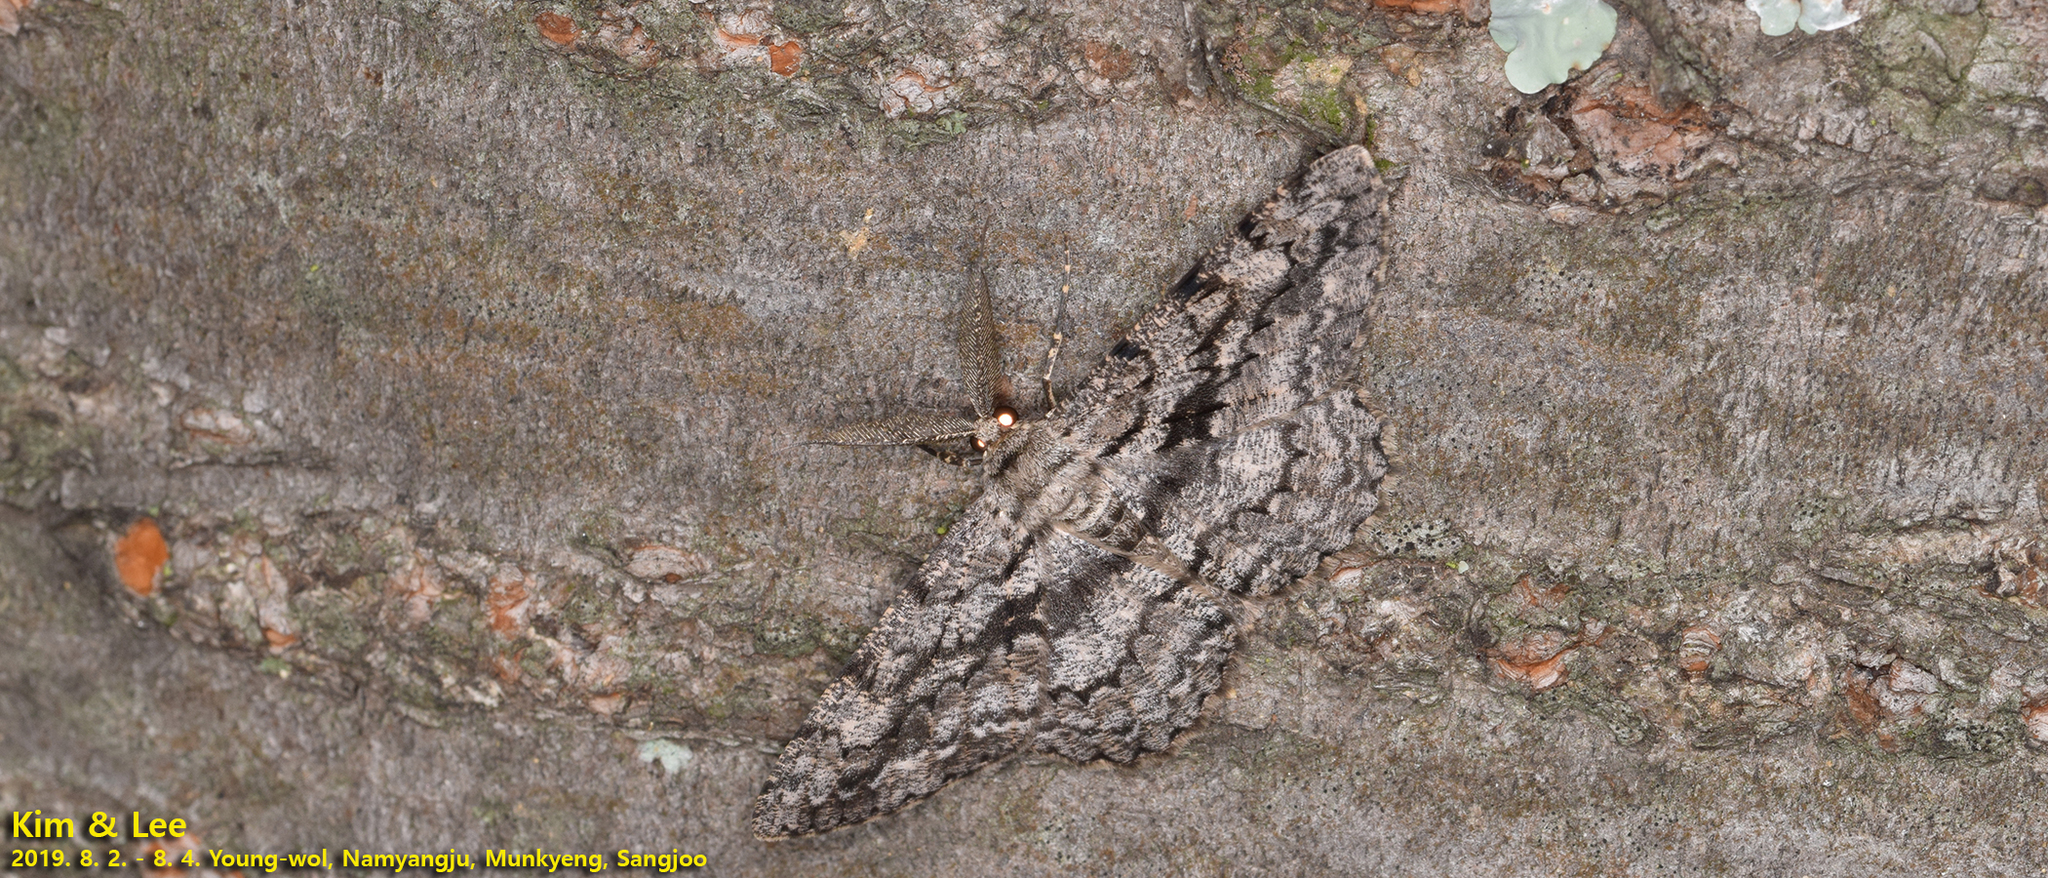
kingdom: Animalia
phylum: Arthropoda
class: Insecta
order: Lepidoptera
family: Geometridae
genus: Hypomecis
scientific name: Hypomecis roboraria
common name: Great oak beauty
